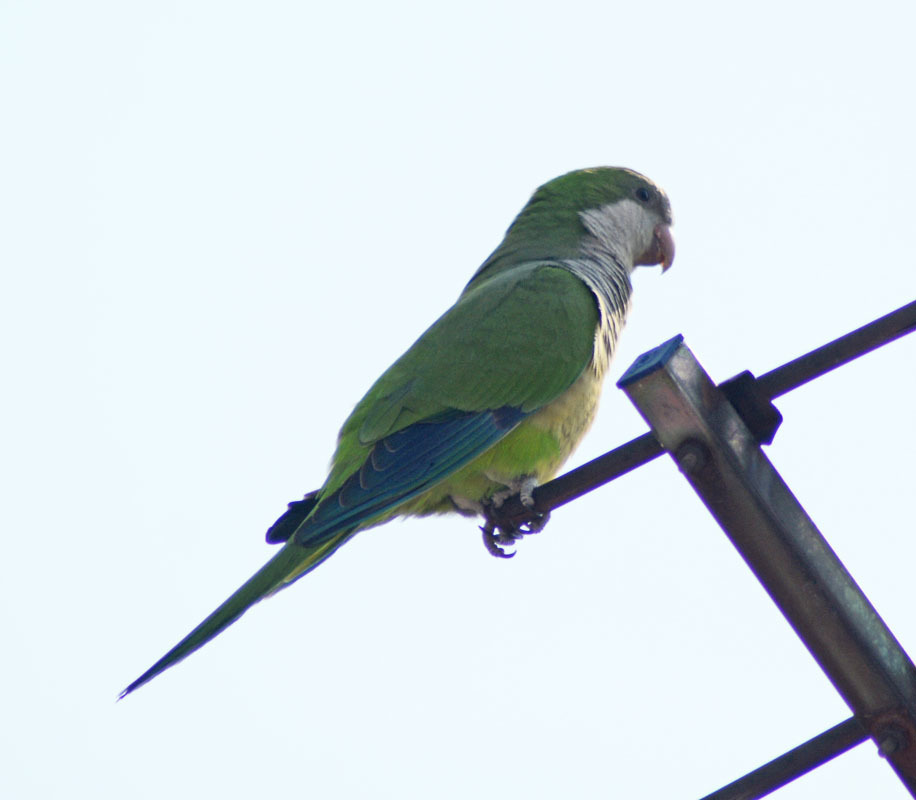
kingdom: Animalia
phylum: Chordata
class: Aves
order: Psittaciformes
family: Psittacidae
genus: Myiopsitta
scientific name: Myiopsitta monachus
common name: Monk parakeet
